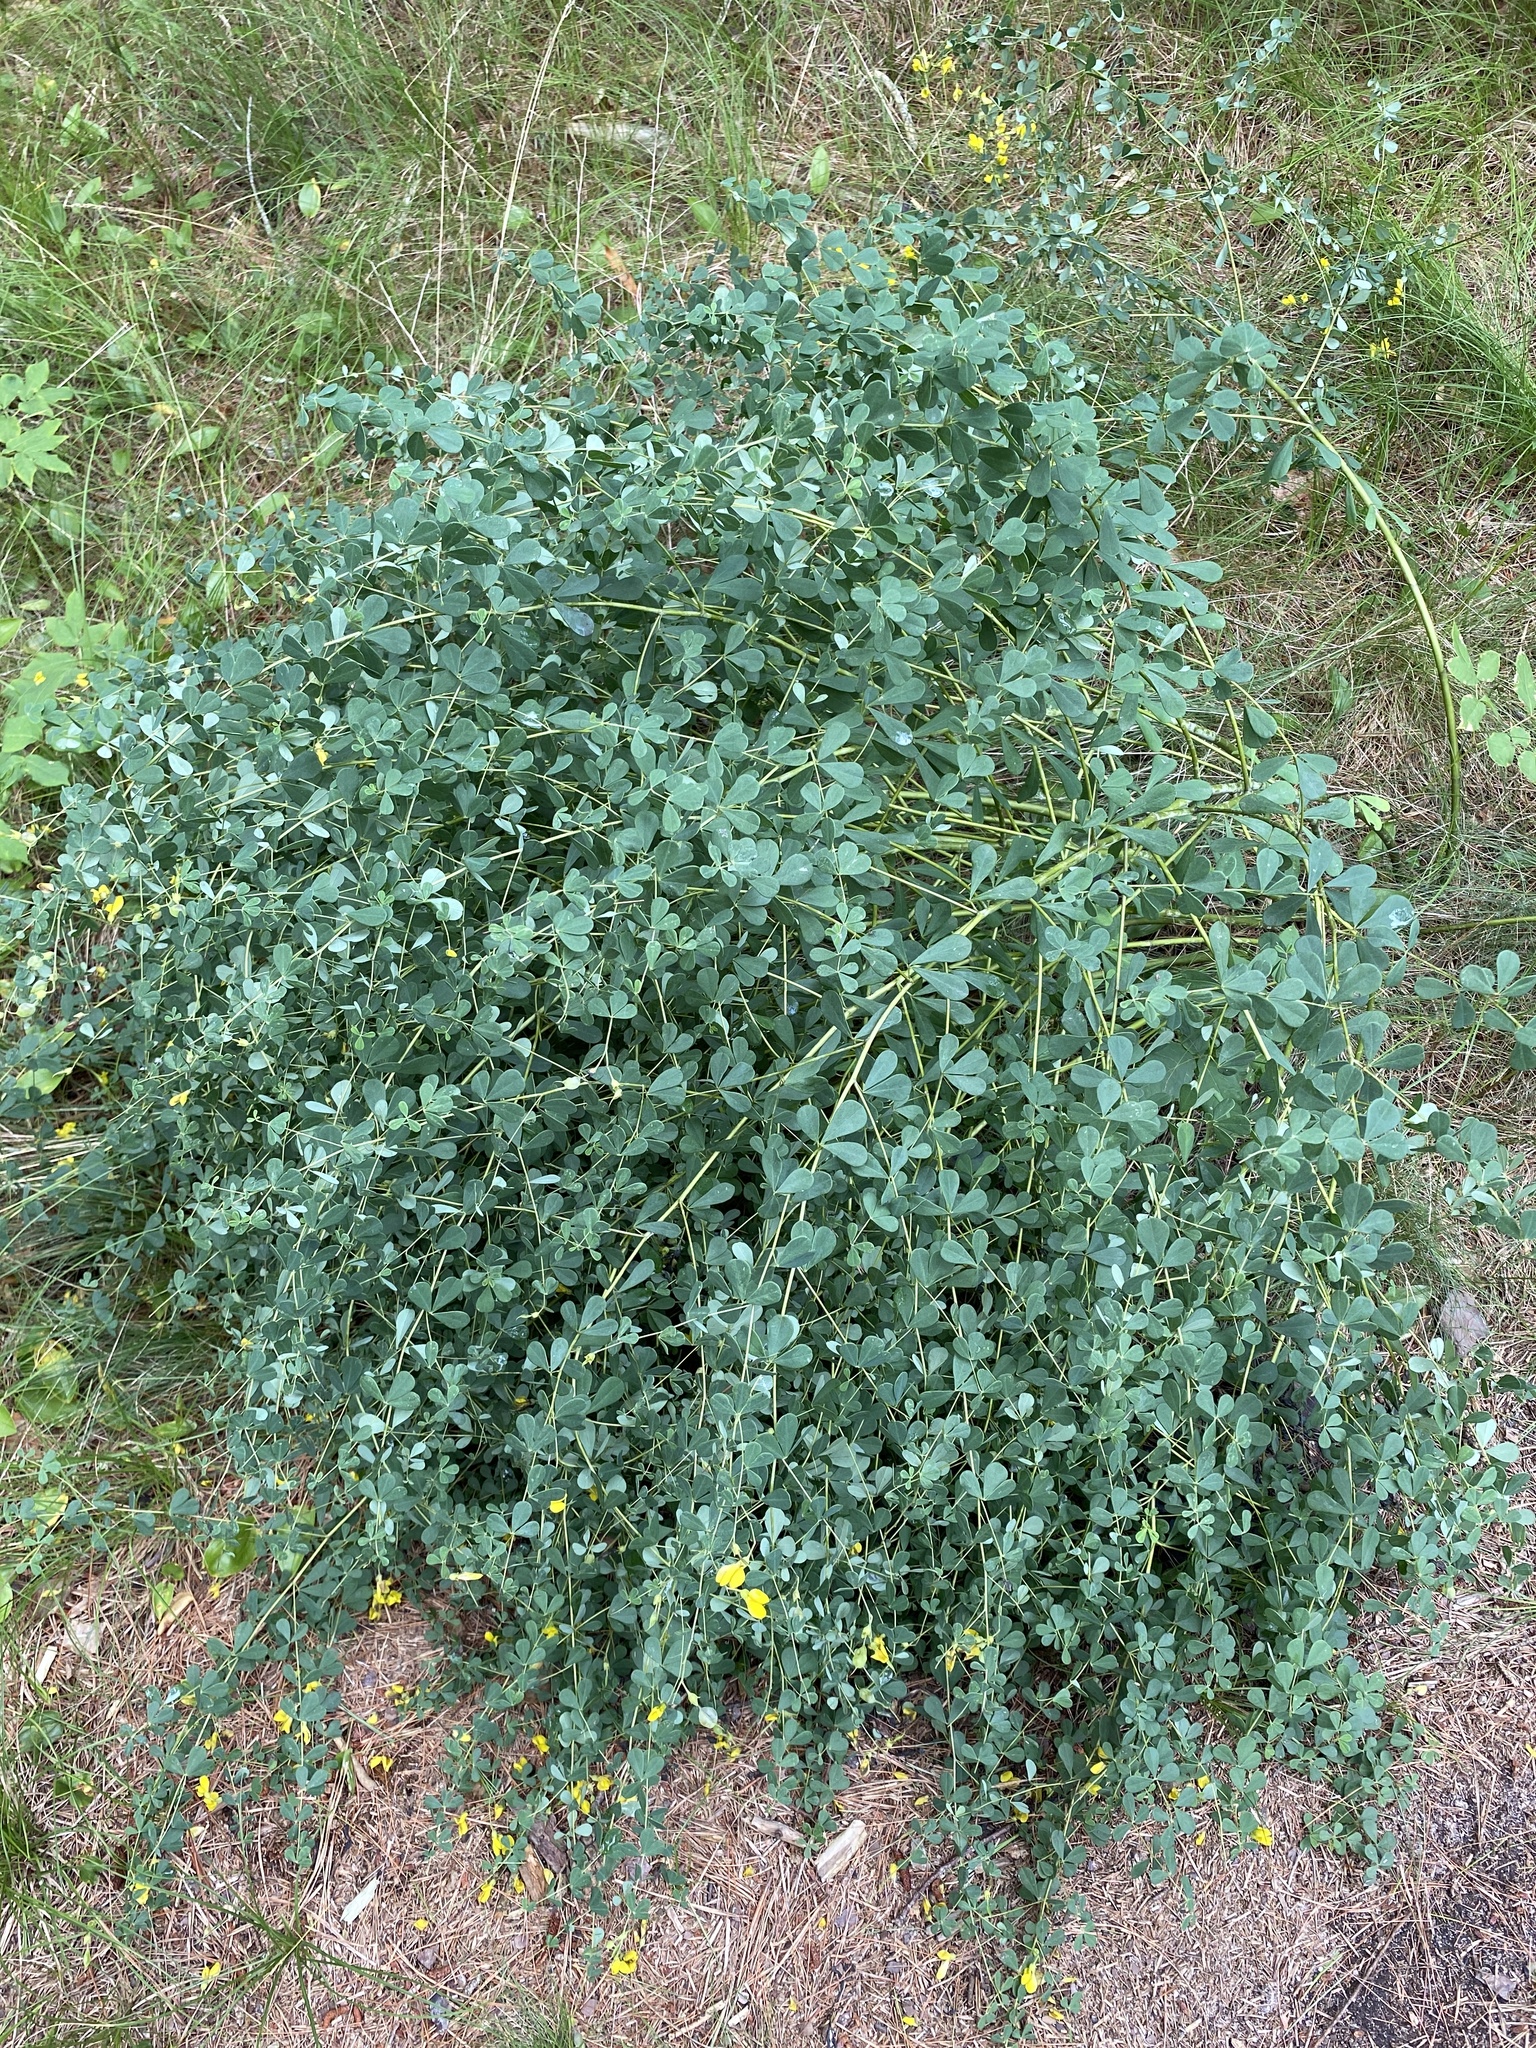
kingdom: Plantae
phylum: Tracheophyta
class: Magnoliopsida
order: Fabales
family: Fabaceae
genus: Baptisia
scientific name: Baptisia tinctoria
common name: Wild indigo
